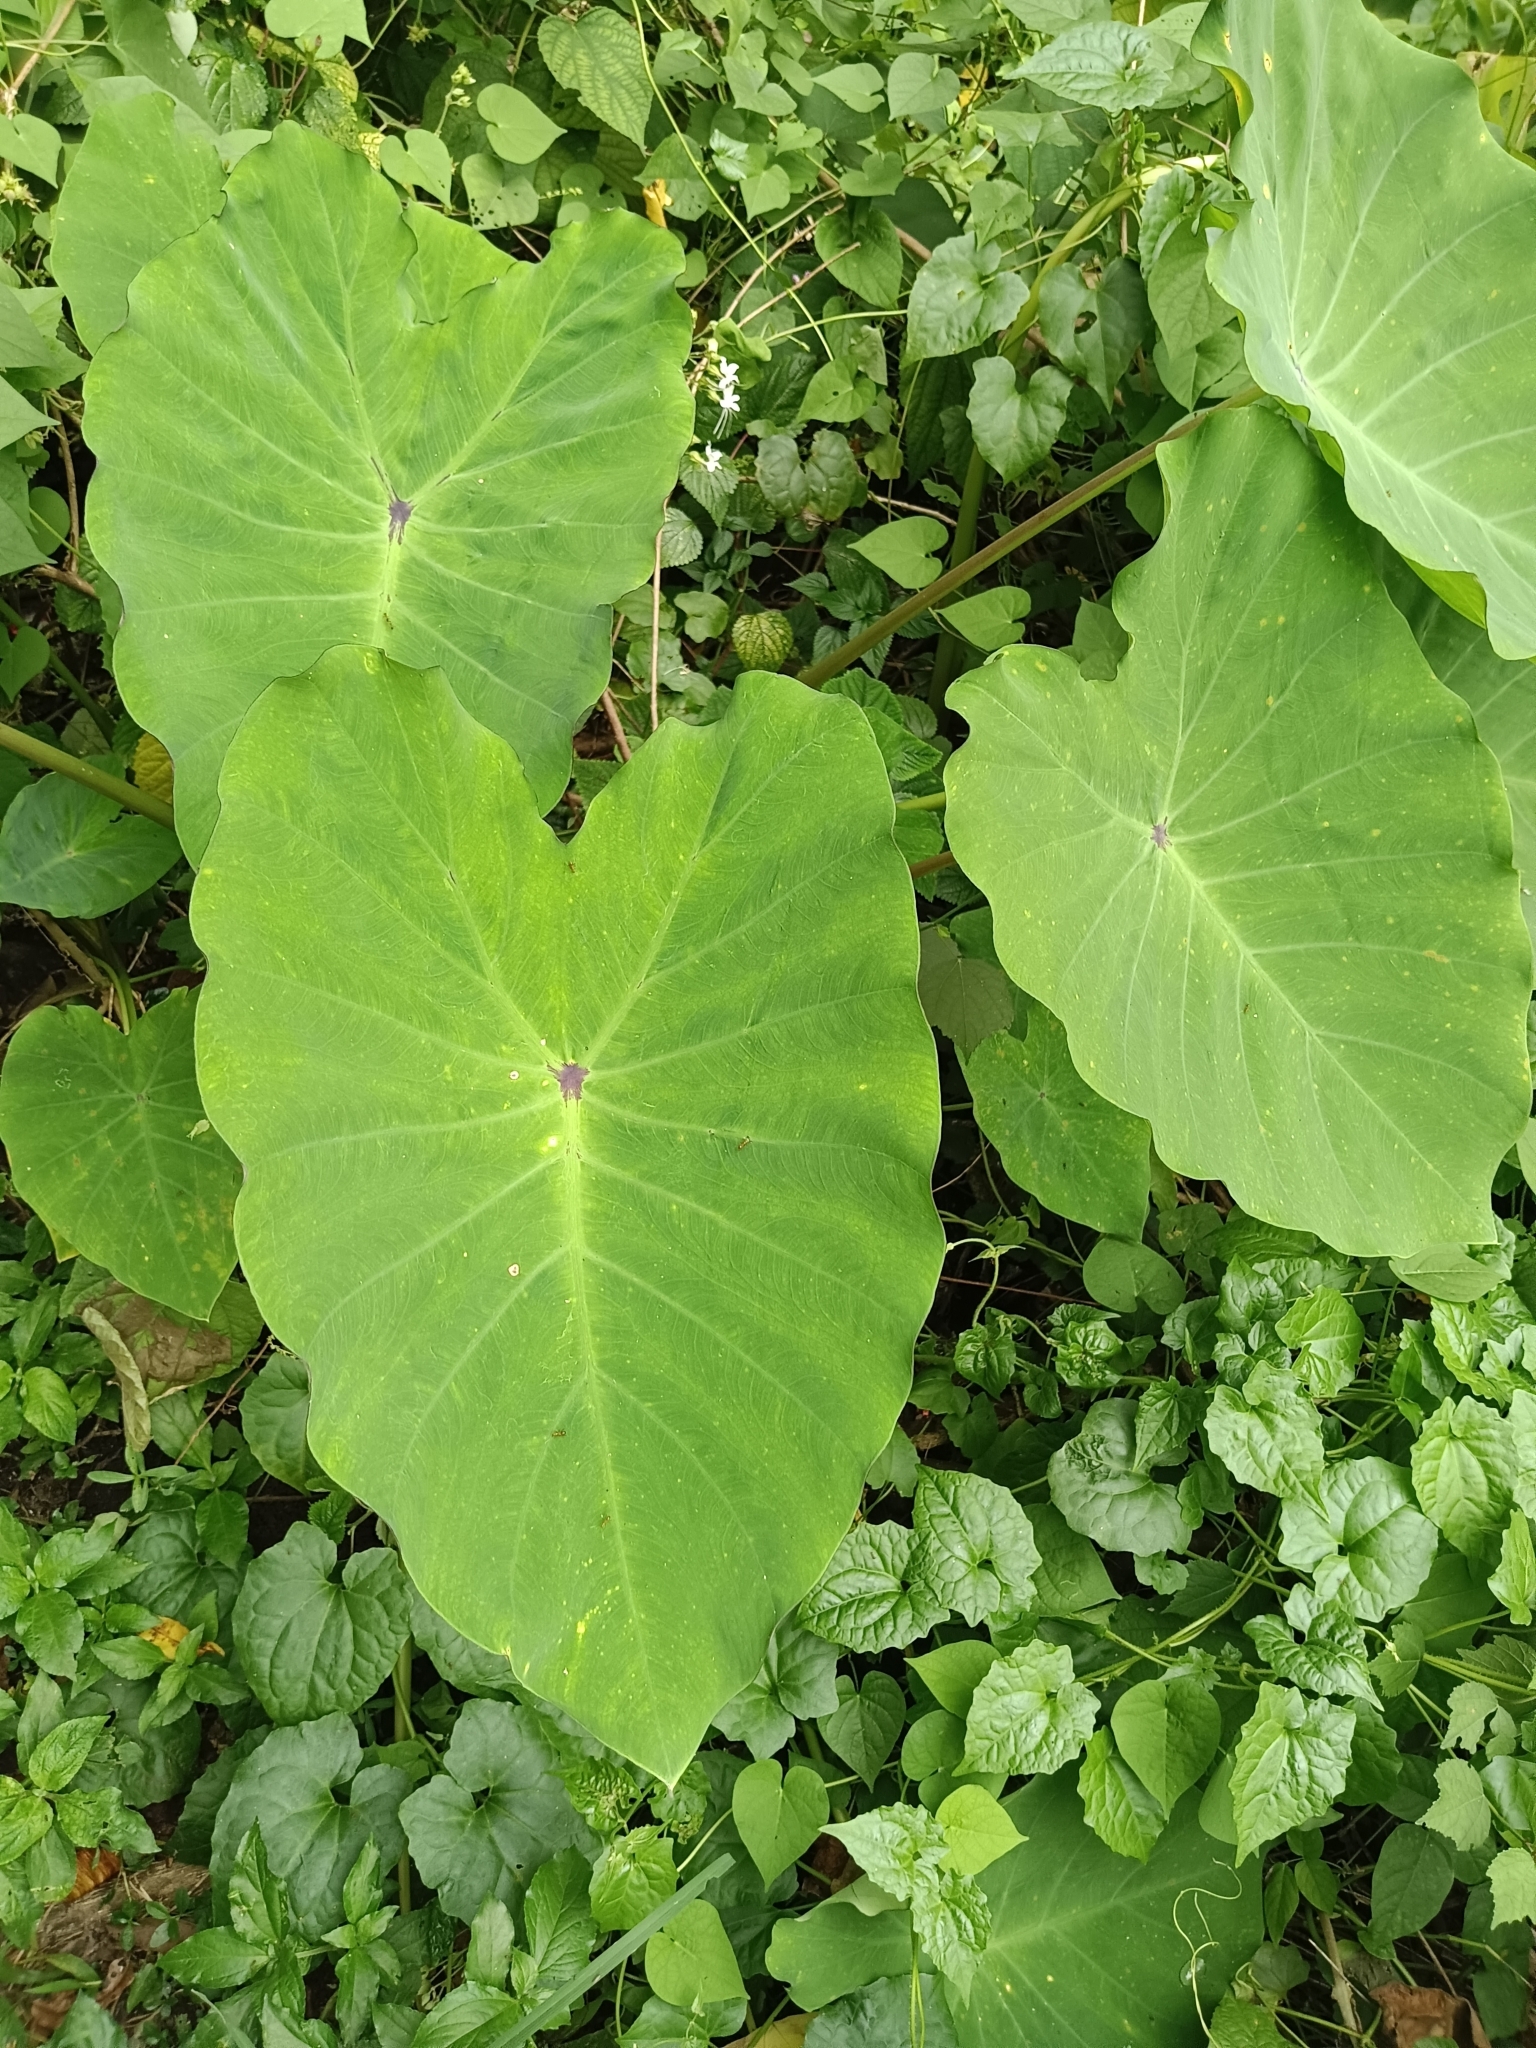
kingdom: Plantae
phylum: Tracheophyta
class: Liliopsida
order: Alismatales
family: Araceae
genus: Colocasia
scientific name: Colocasia esculenta
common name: Taro
